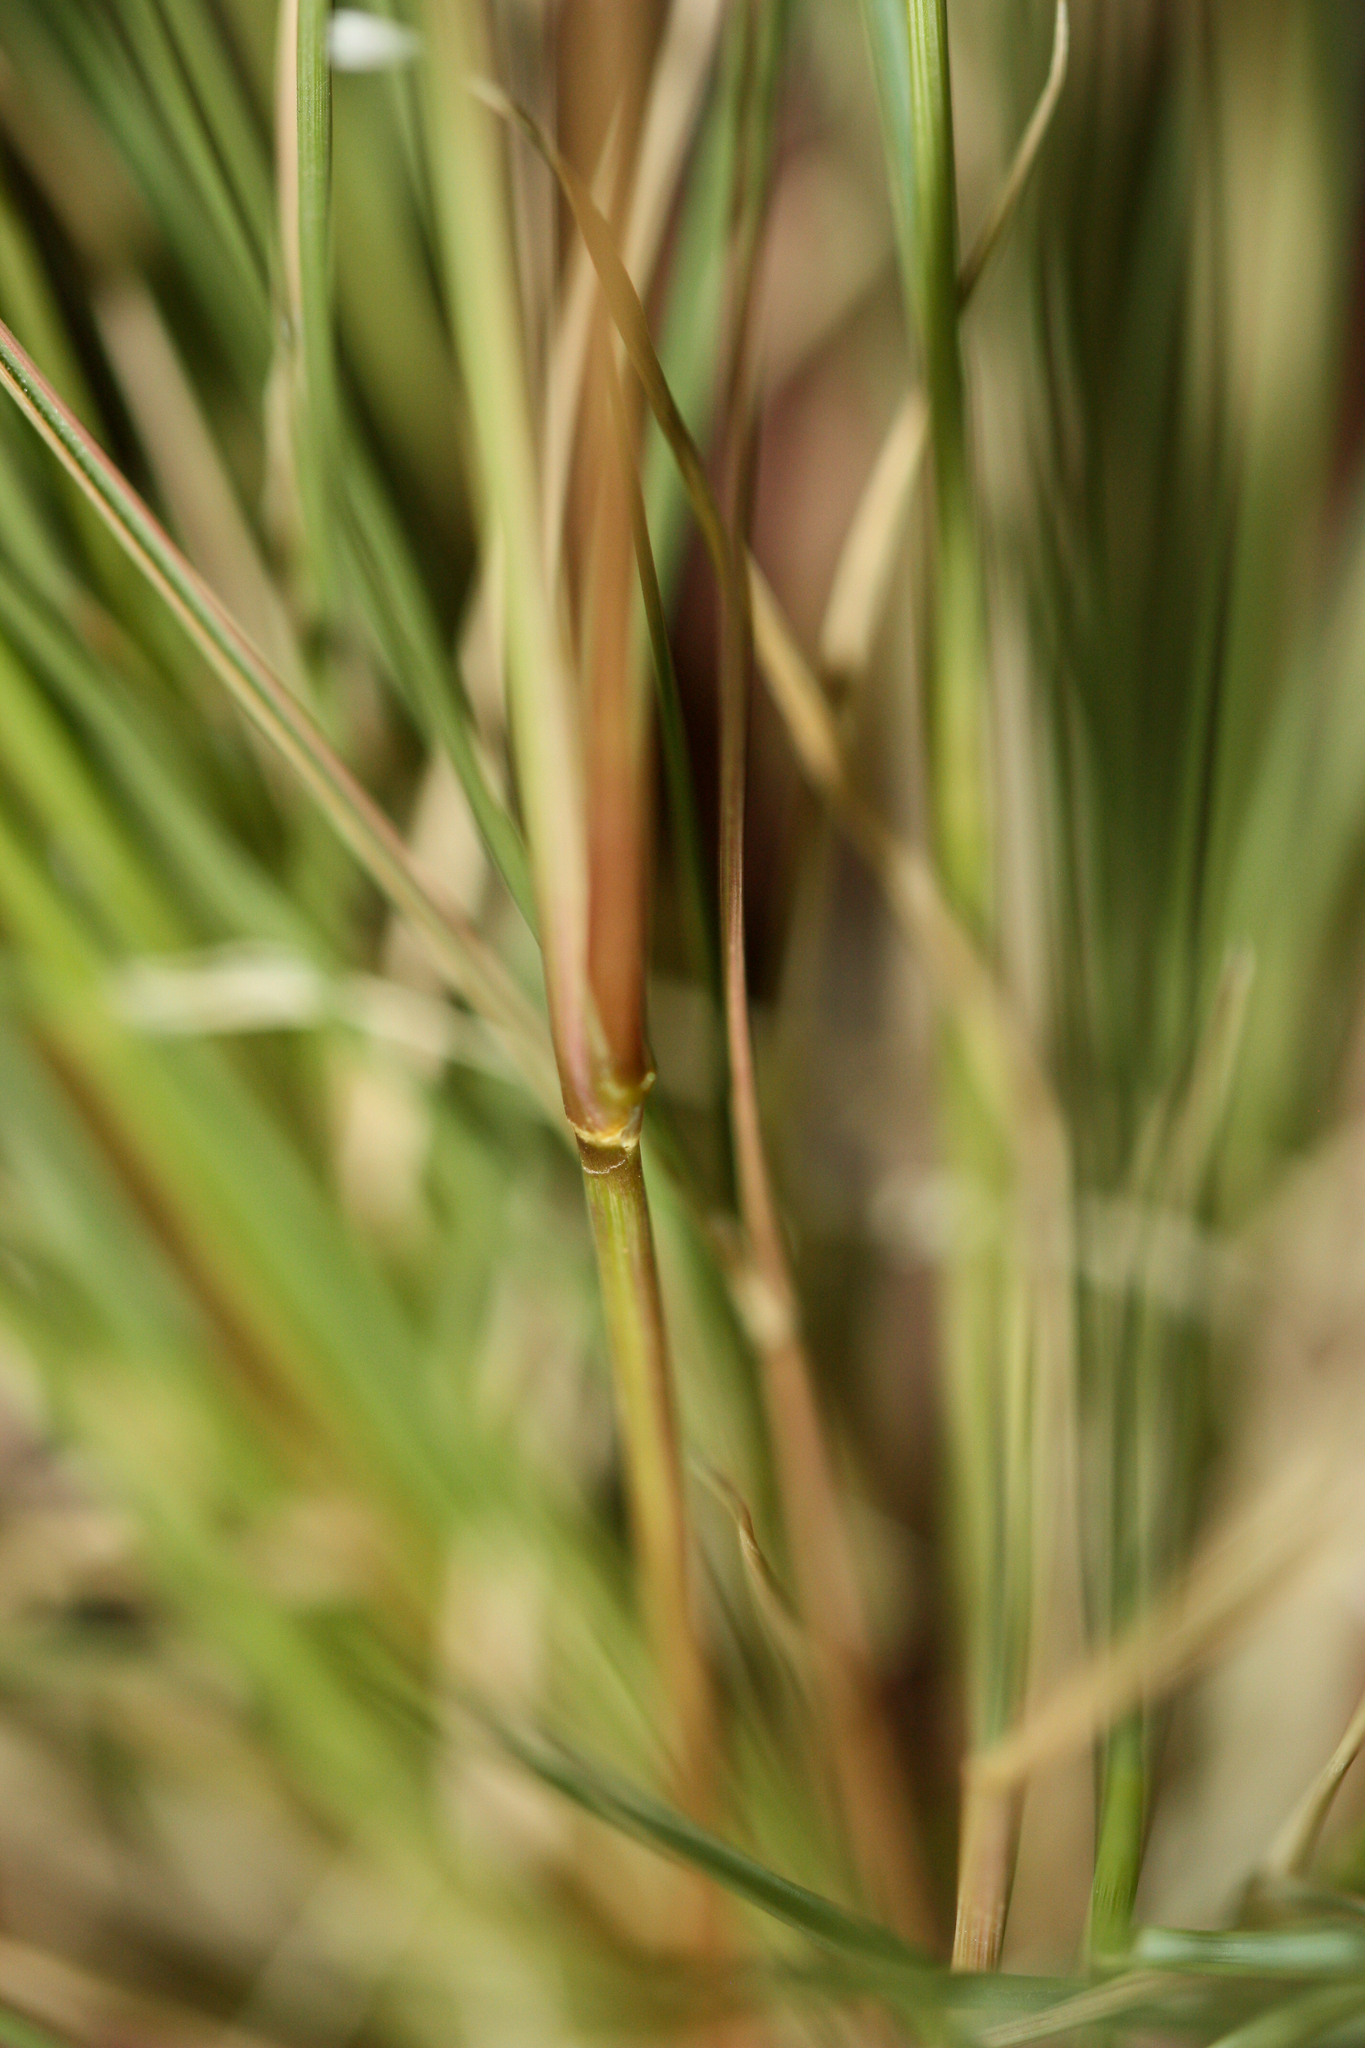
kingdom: Plantae
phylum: Tracheophyta
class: Liliopsida
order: Poales
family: Poaceae
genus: Aristida
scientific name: Aristida adscensionis
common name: Sixweeks threeawn
